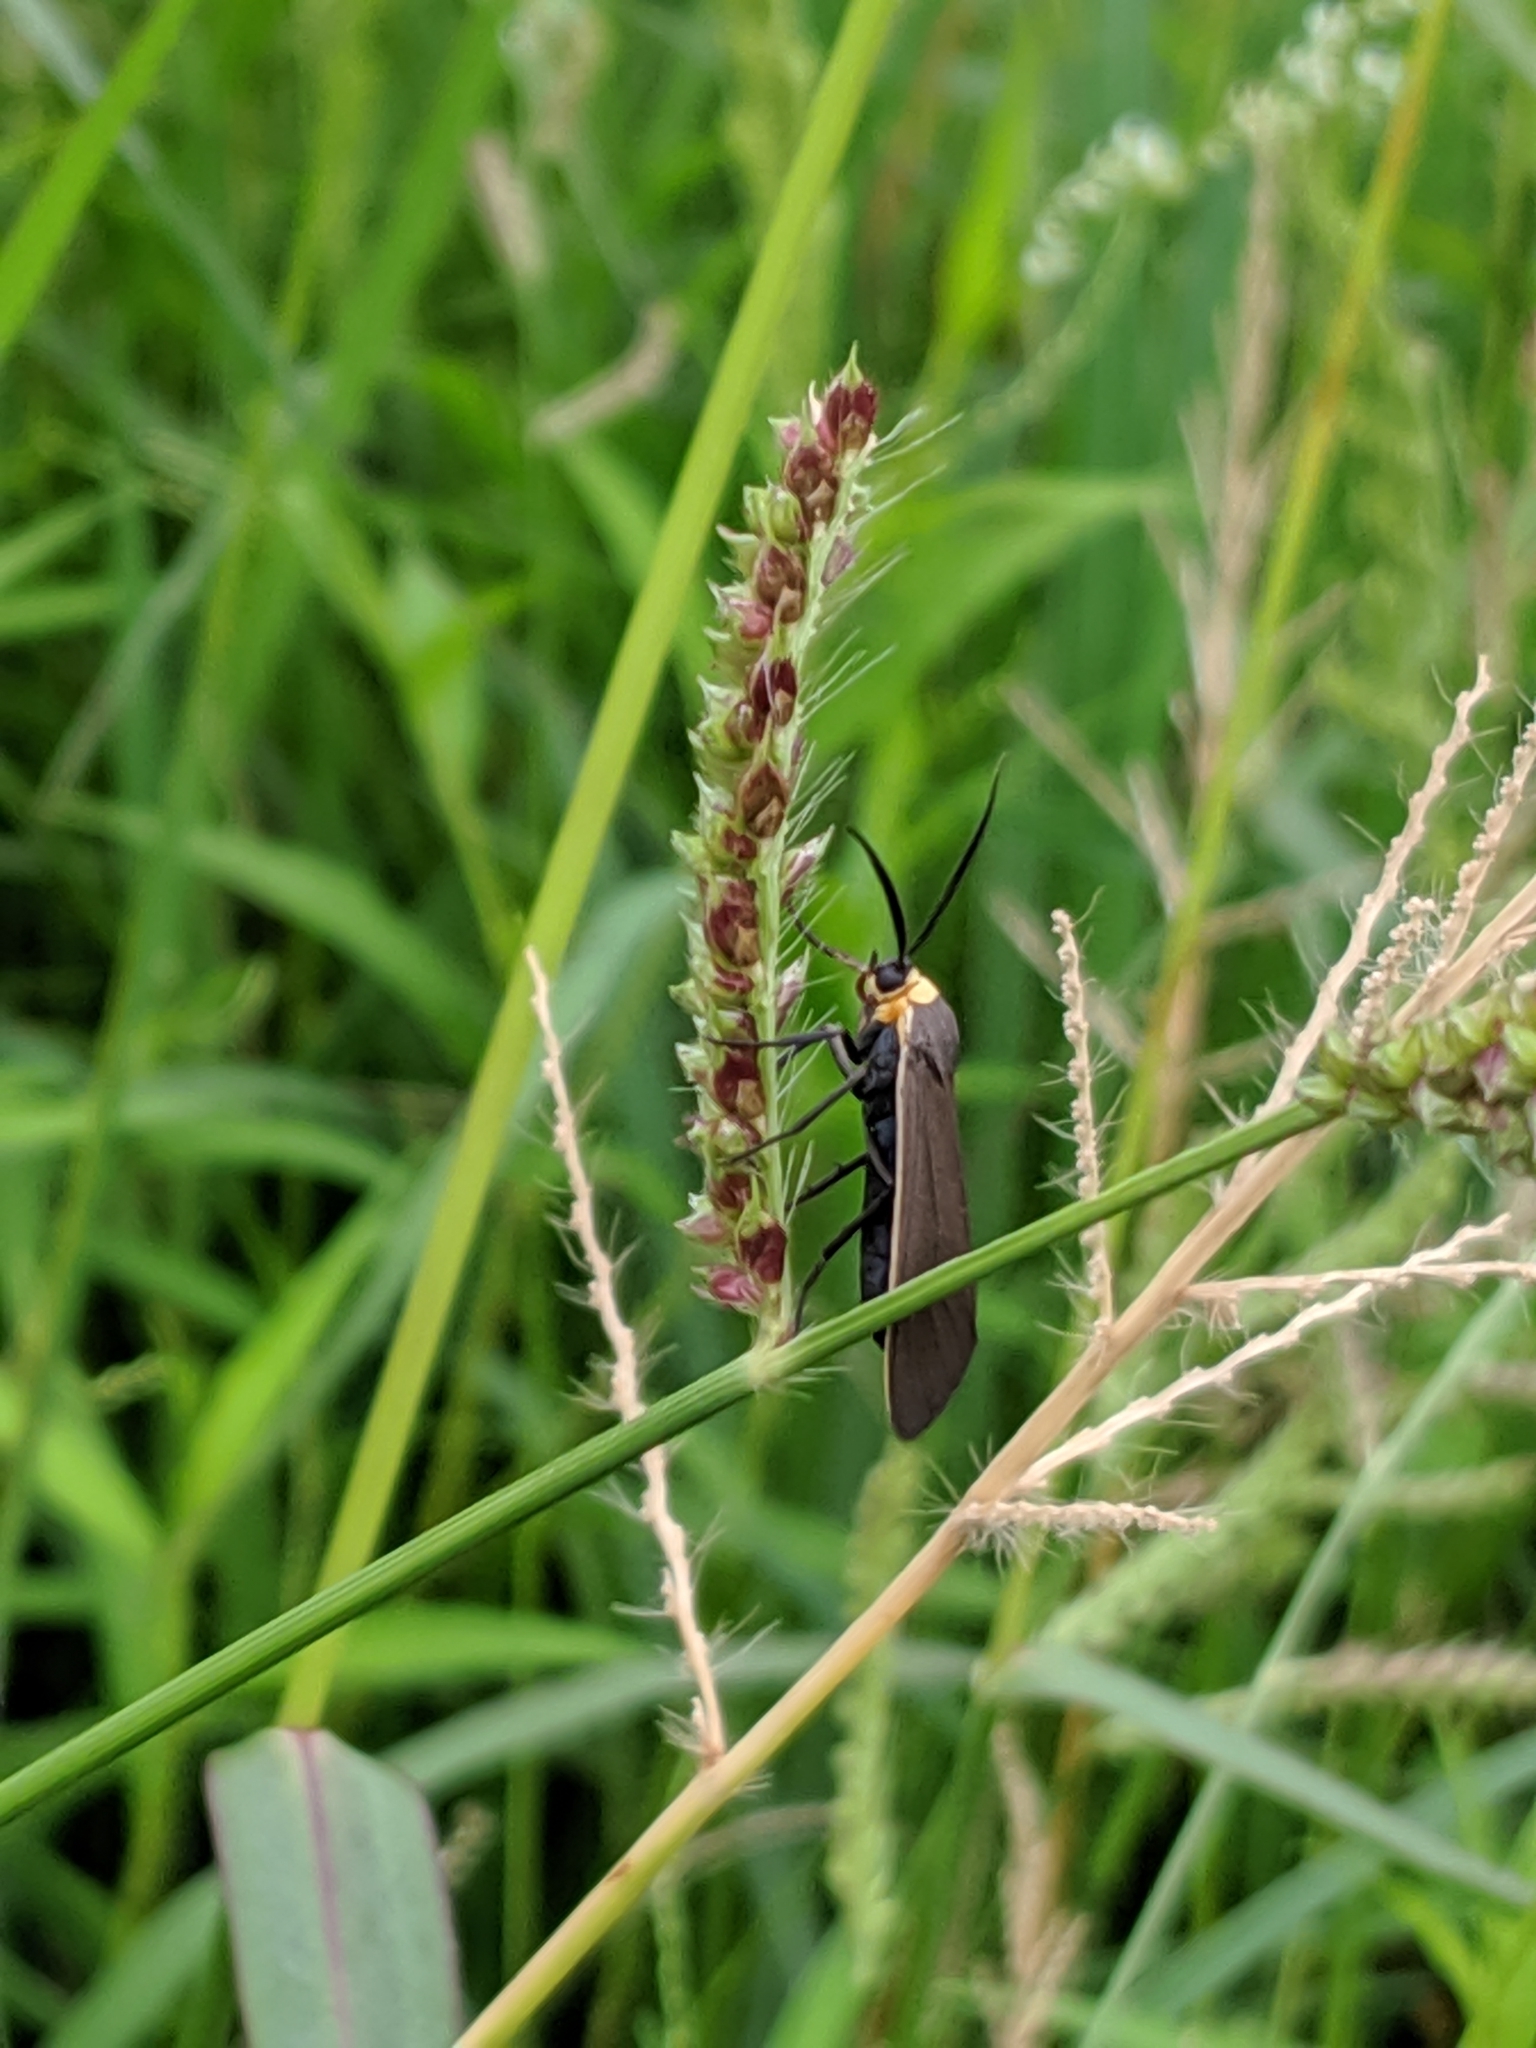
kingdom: Animalia
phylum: Arthropoda
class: Insecta
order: Lepidoptera
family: Erebidae
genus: Cisseps
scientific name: Cisseps fulvicollis
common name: Yellow-collared scape moth
